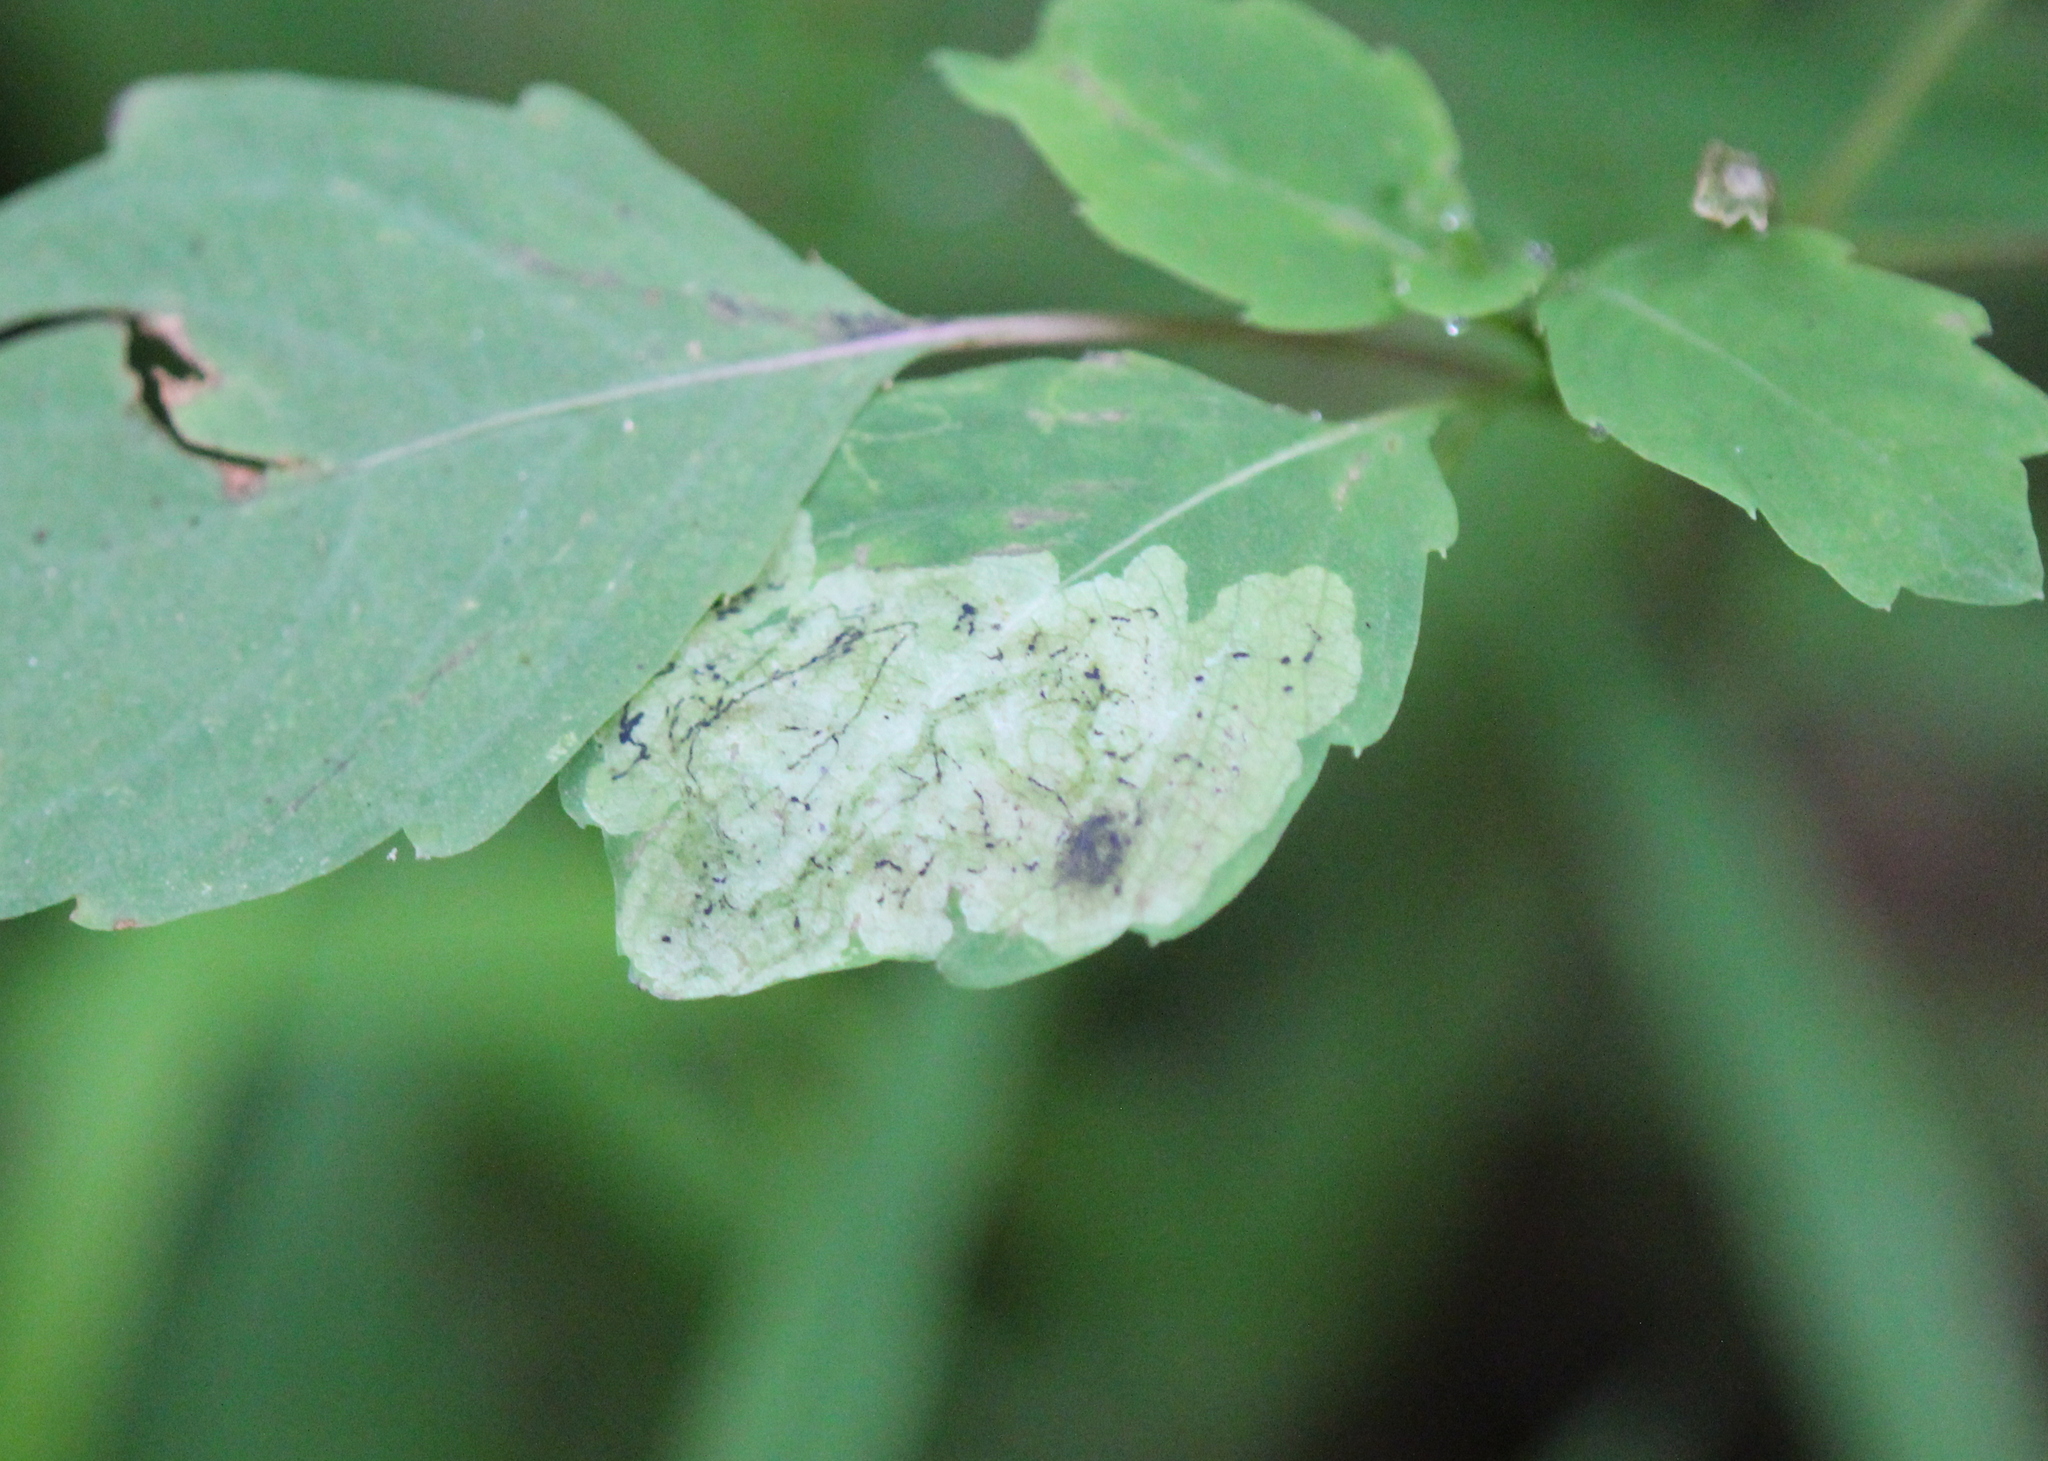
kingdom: Animalia
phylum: Arthropoda
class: Insecta
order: Diptera
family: Agromyzidae
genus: Phytoliriomyza
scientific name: Phytoliriomyza melampyga
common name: Jewelweed leaf-miner fly
